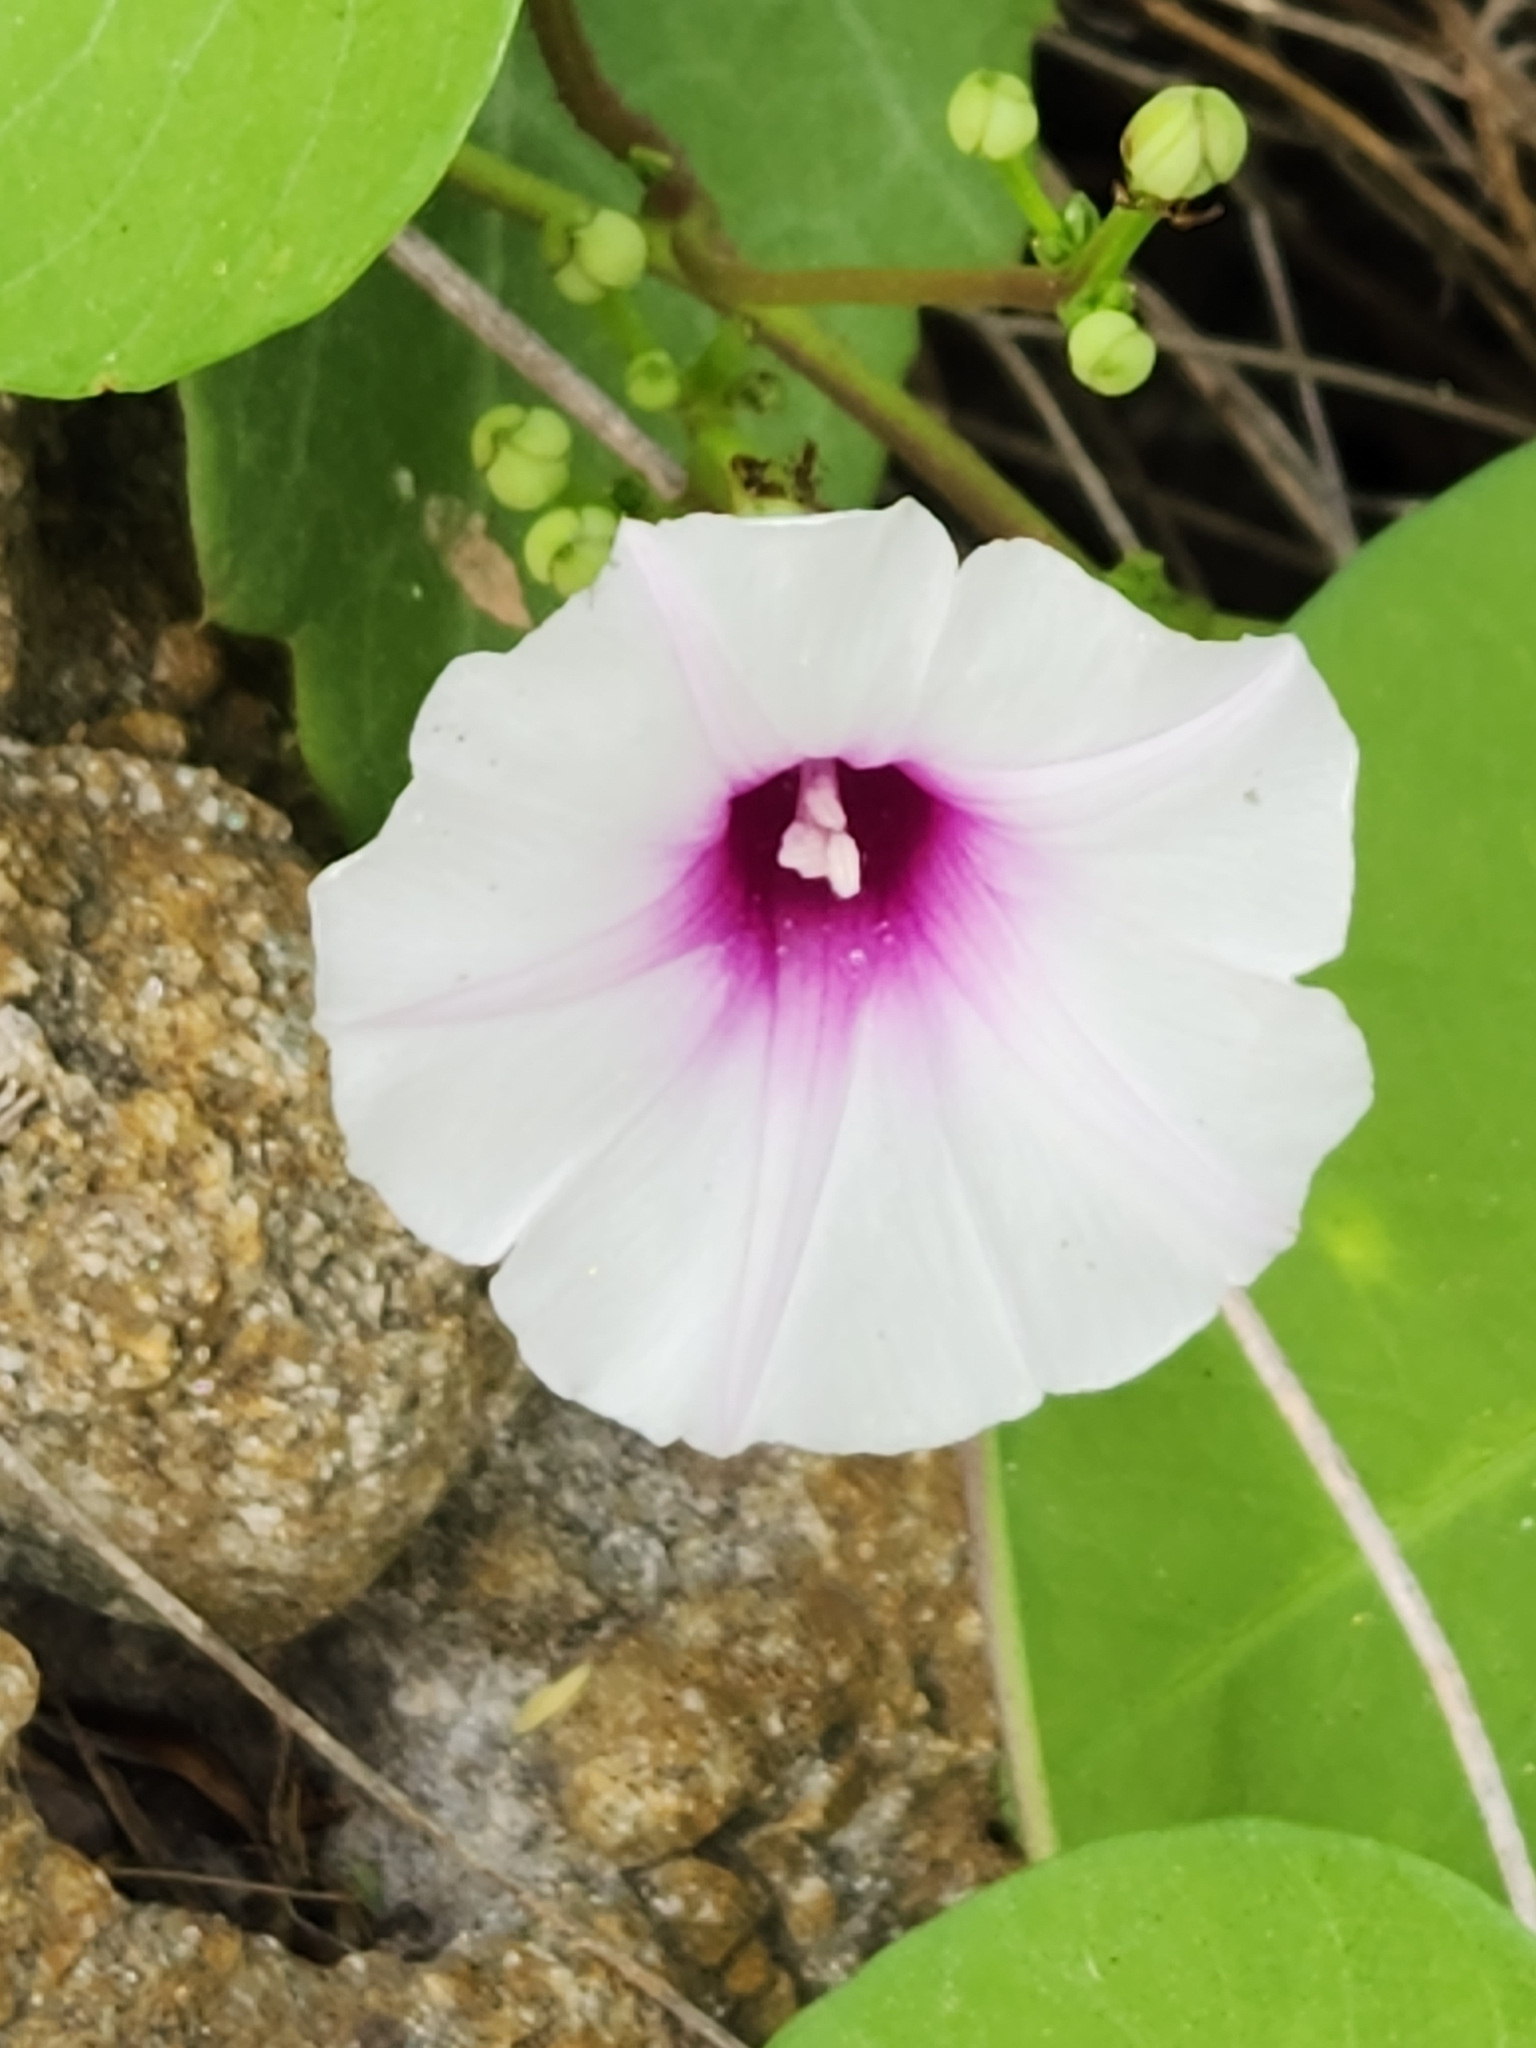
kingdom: Plantae
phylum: Tracheophyta
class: Magnoliopsida
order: Solanales
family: Convolvulaceae
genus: Ipomoea
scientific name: Ipomoea amnicola
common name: Redcenter morning-glory
